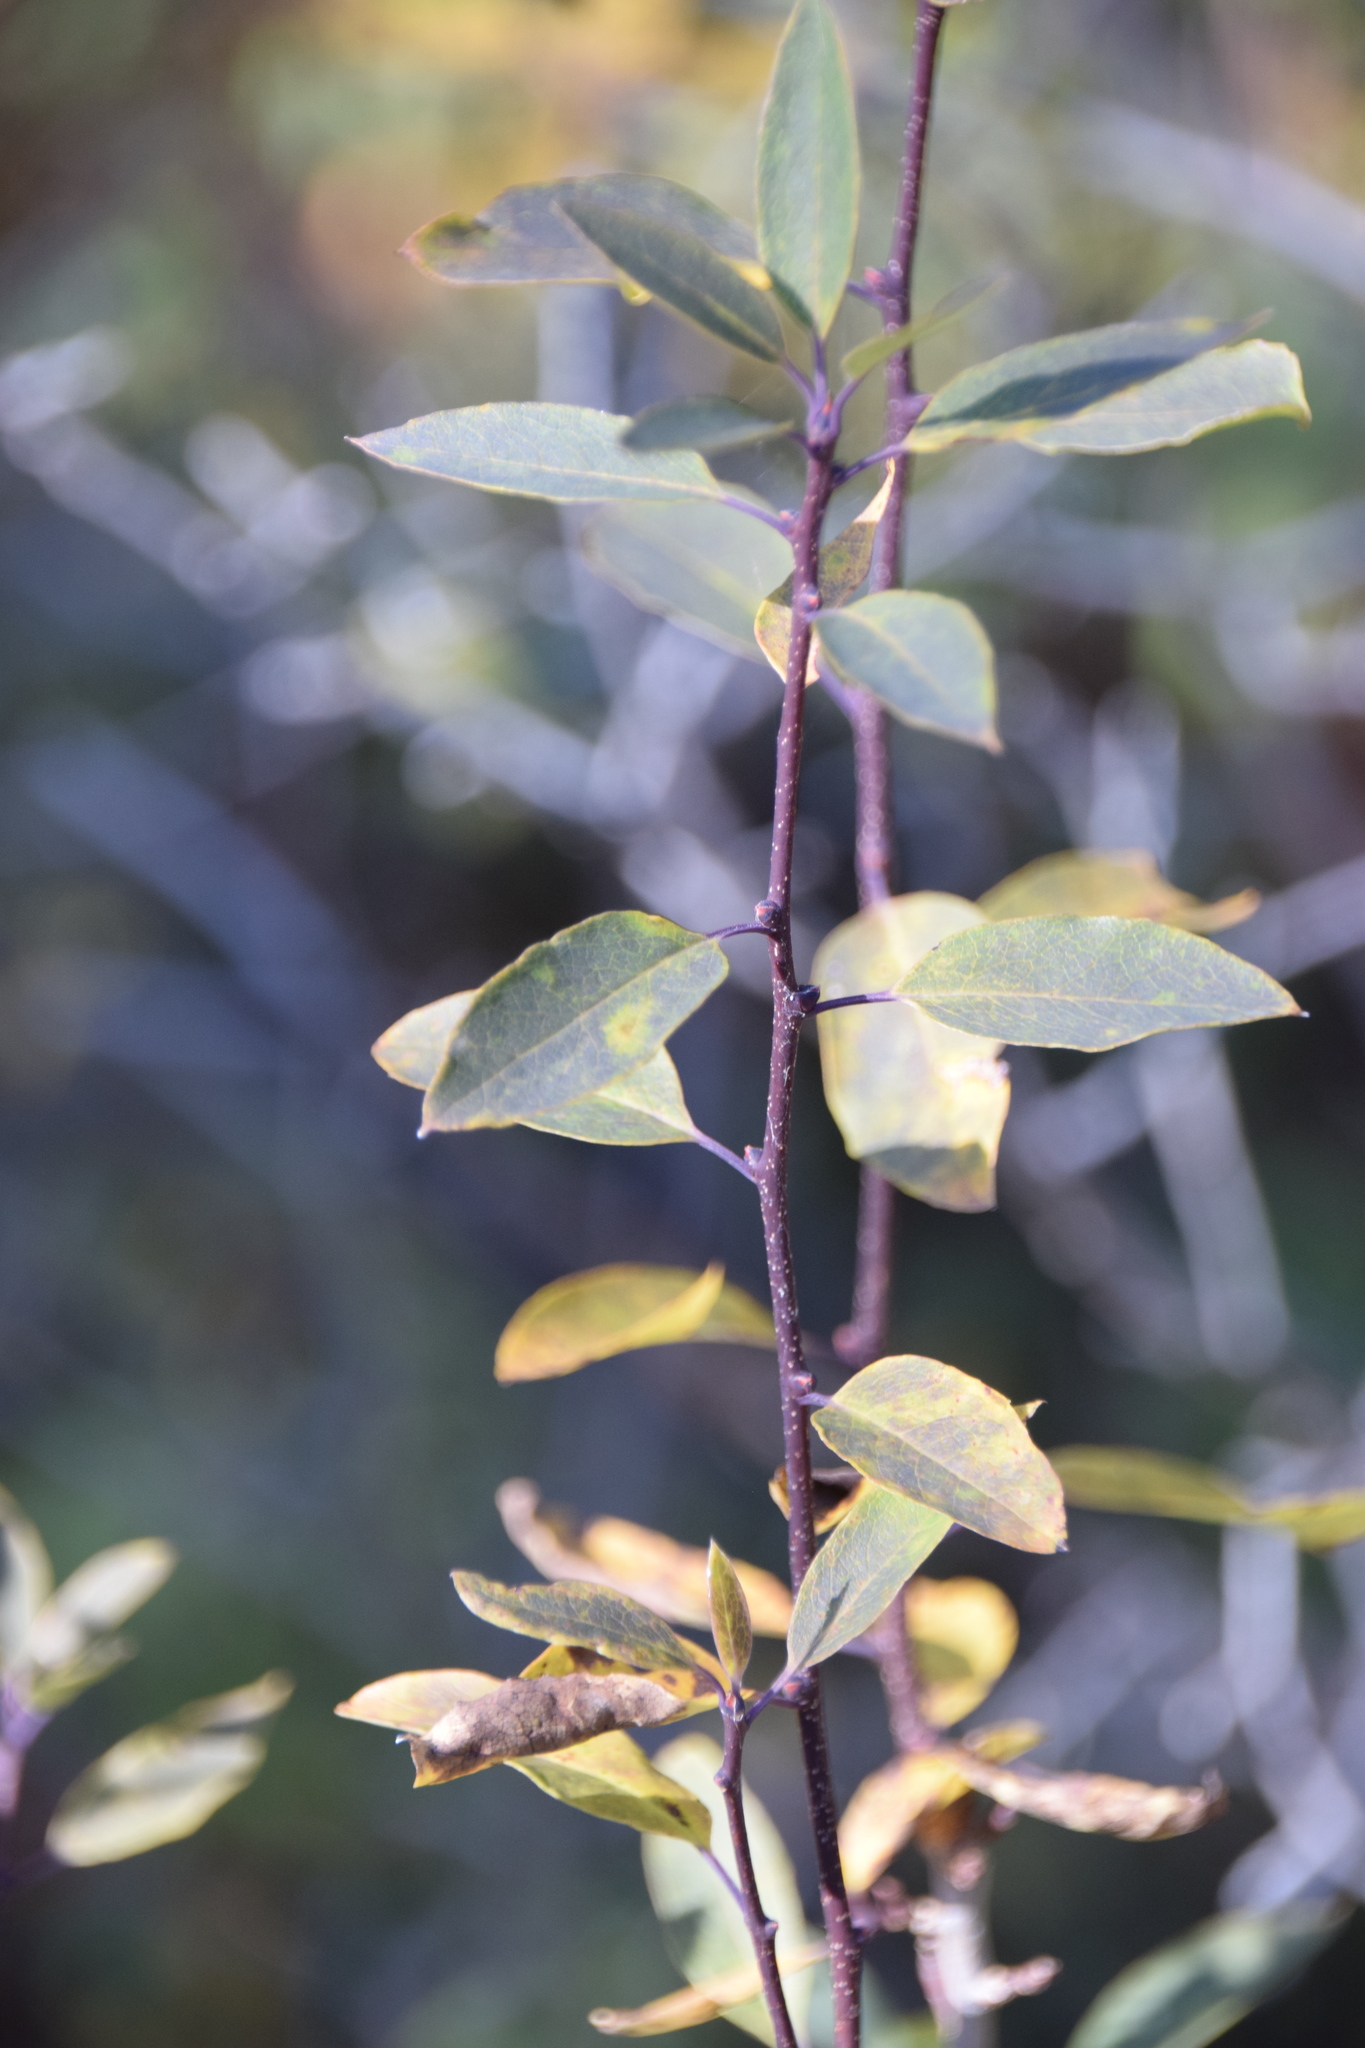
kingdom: Plantae
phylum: Tracheophyta
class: Magnoliopsida
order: Aquifoliales
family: Aquifoliaceae
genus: Ilex
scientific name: Ilex mucronata
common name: Catberry
